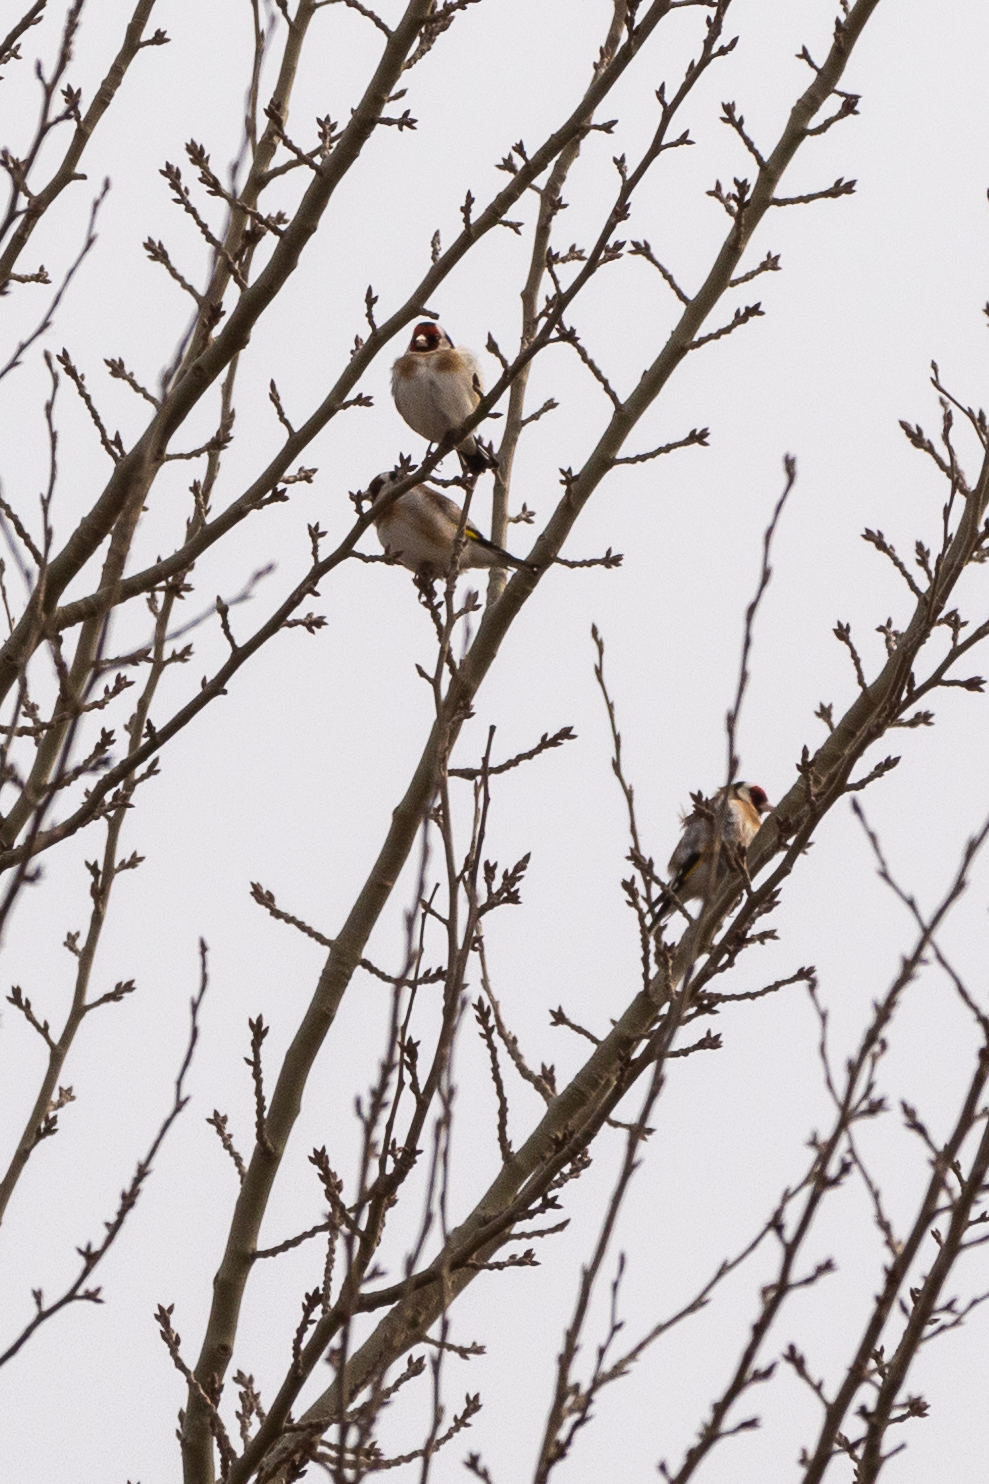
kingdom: Animalia
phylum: Chordata
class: Aves
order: Passeriformes
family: Fringillidae
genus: Carduelis
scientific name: Carduelis carduelis
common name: European goldfinch
